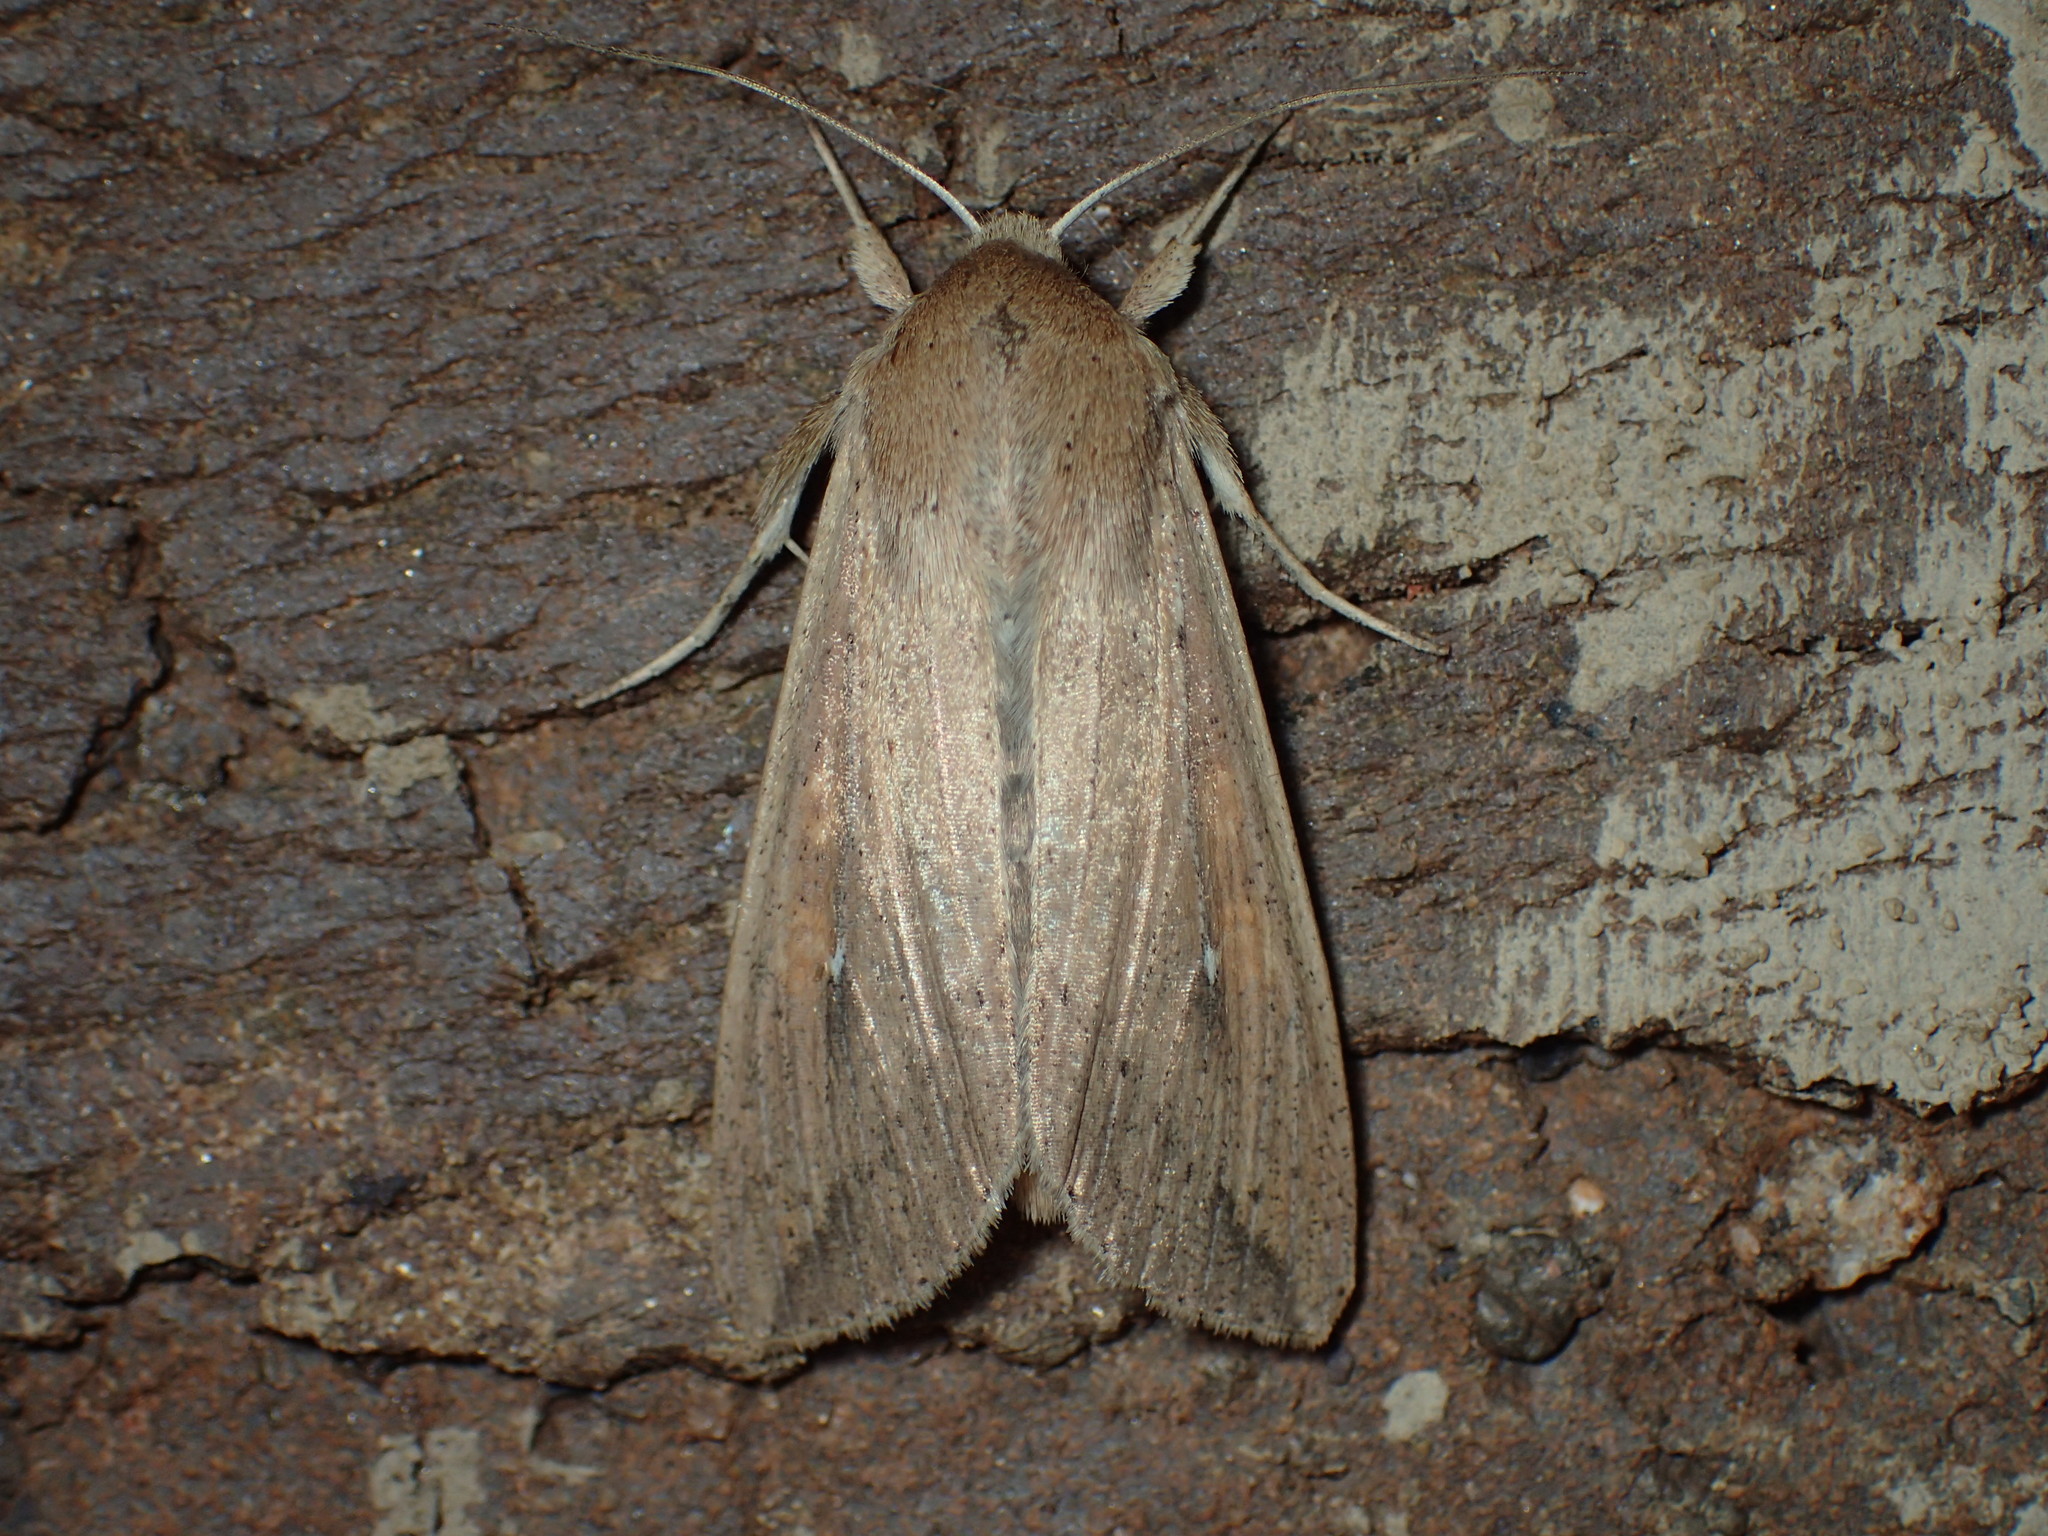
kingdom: Animalia
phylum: Arthropoda
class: Insecta
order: Lepidoptera
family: Noctuidae
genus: Mythimna
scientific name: Mythimna unipuncta
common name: White-speck
